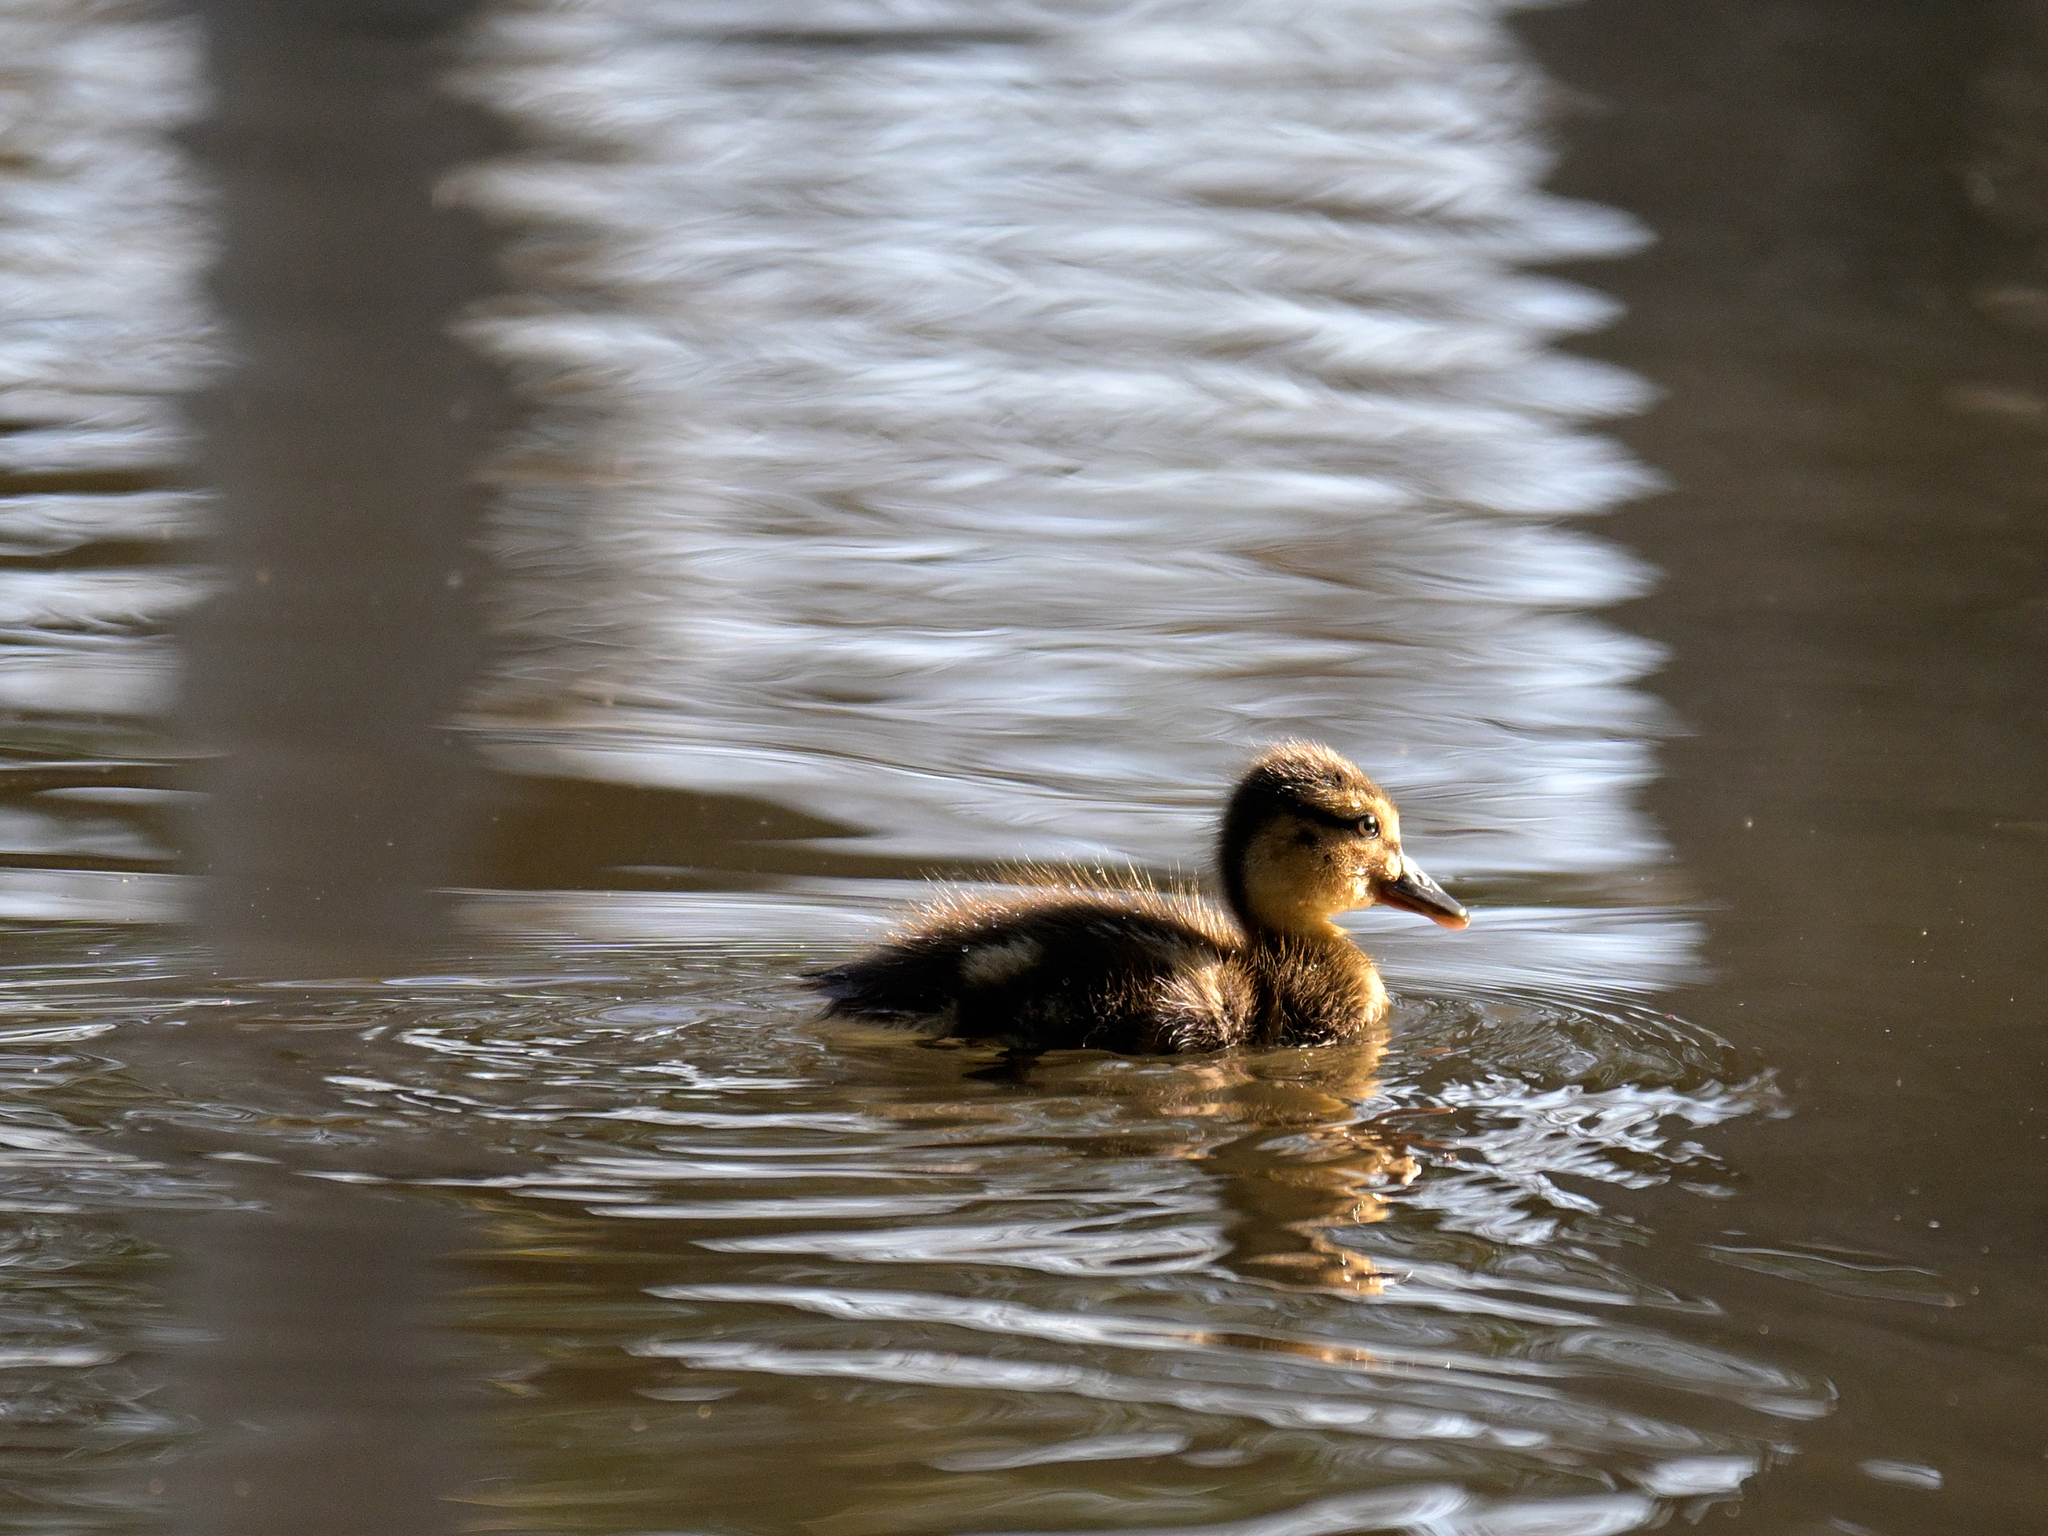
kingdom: Animalia
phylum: Chordata
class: Aves
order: Anseriformes
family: Anatidae
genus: Anas
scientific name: Anas platyrhynchos
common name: Mallard
